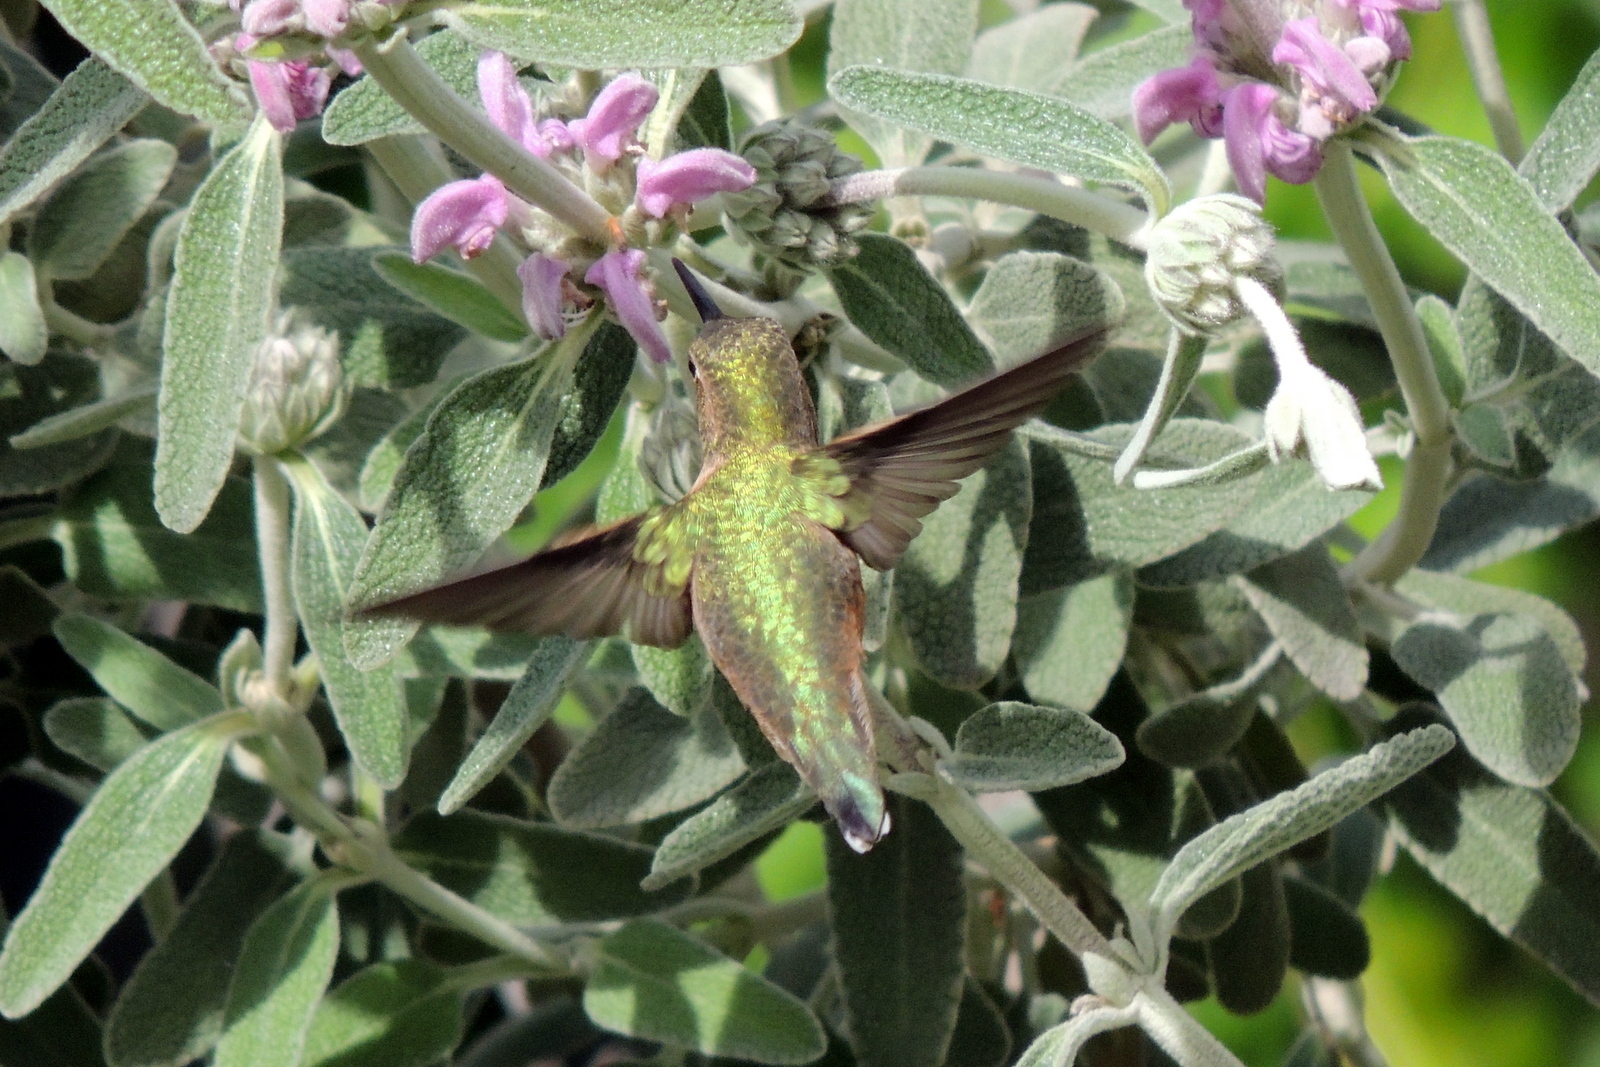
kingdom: Animalia
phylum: Chordata
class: Aves
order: Apodiformes
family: Trochilidae
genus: Selasphorus
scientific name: Selasphorus sasin
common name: Allen's hummingbird
